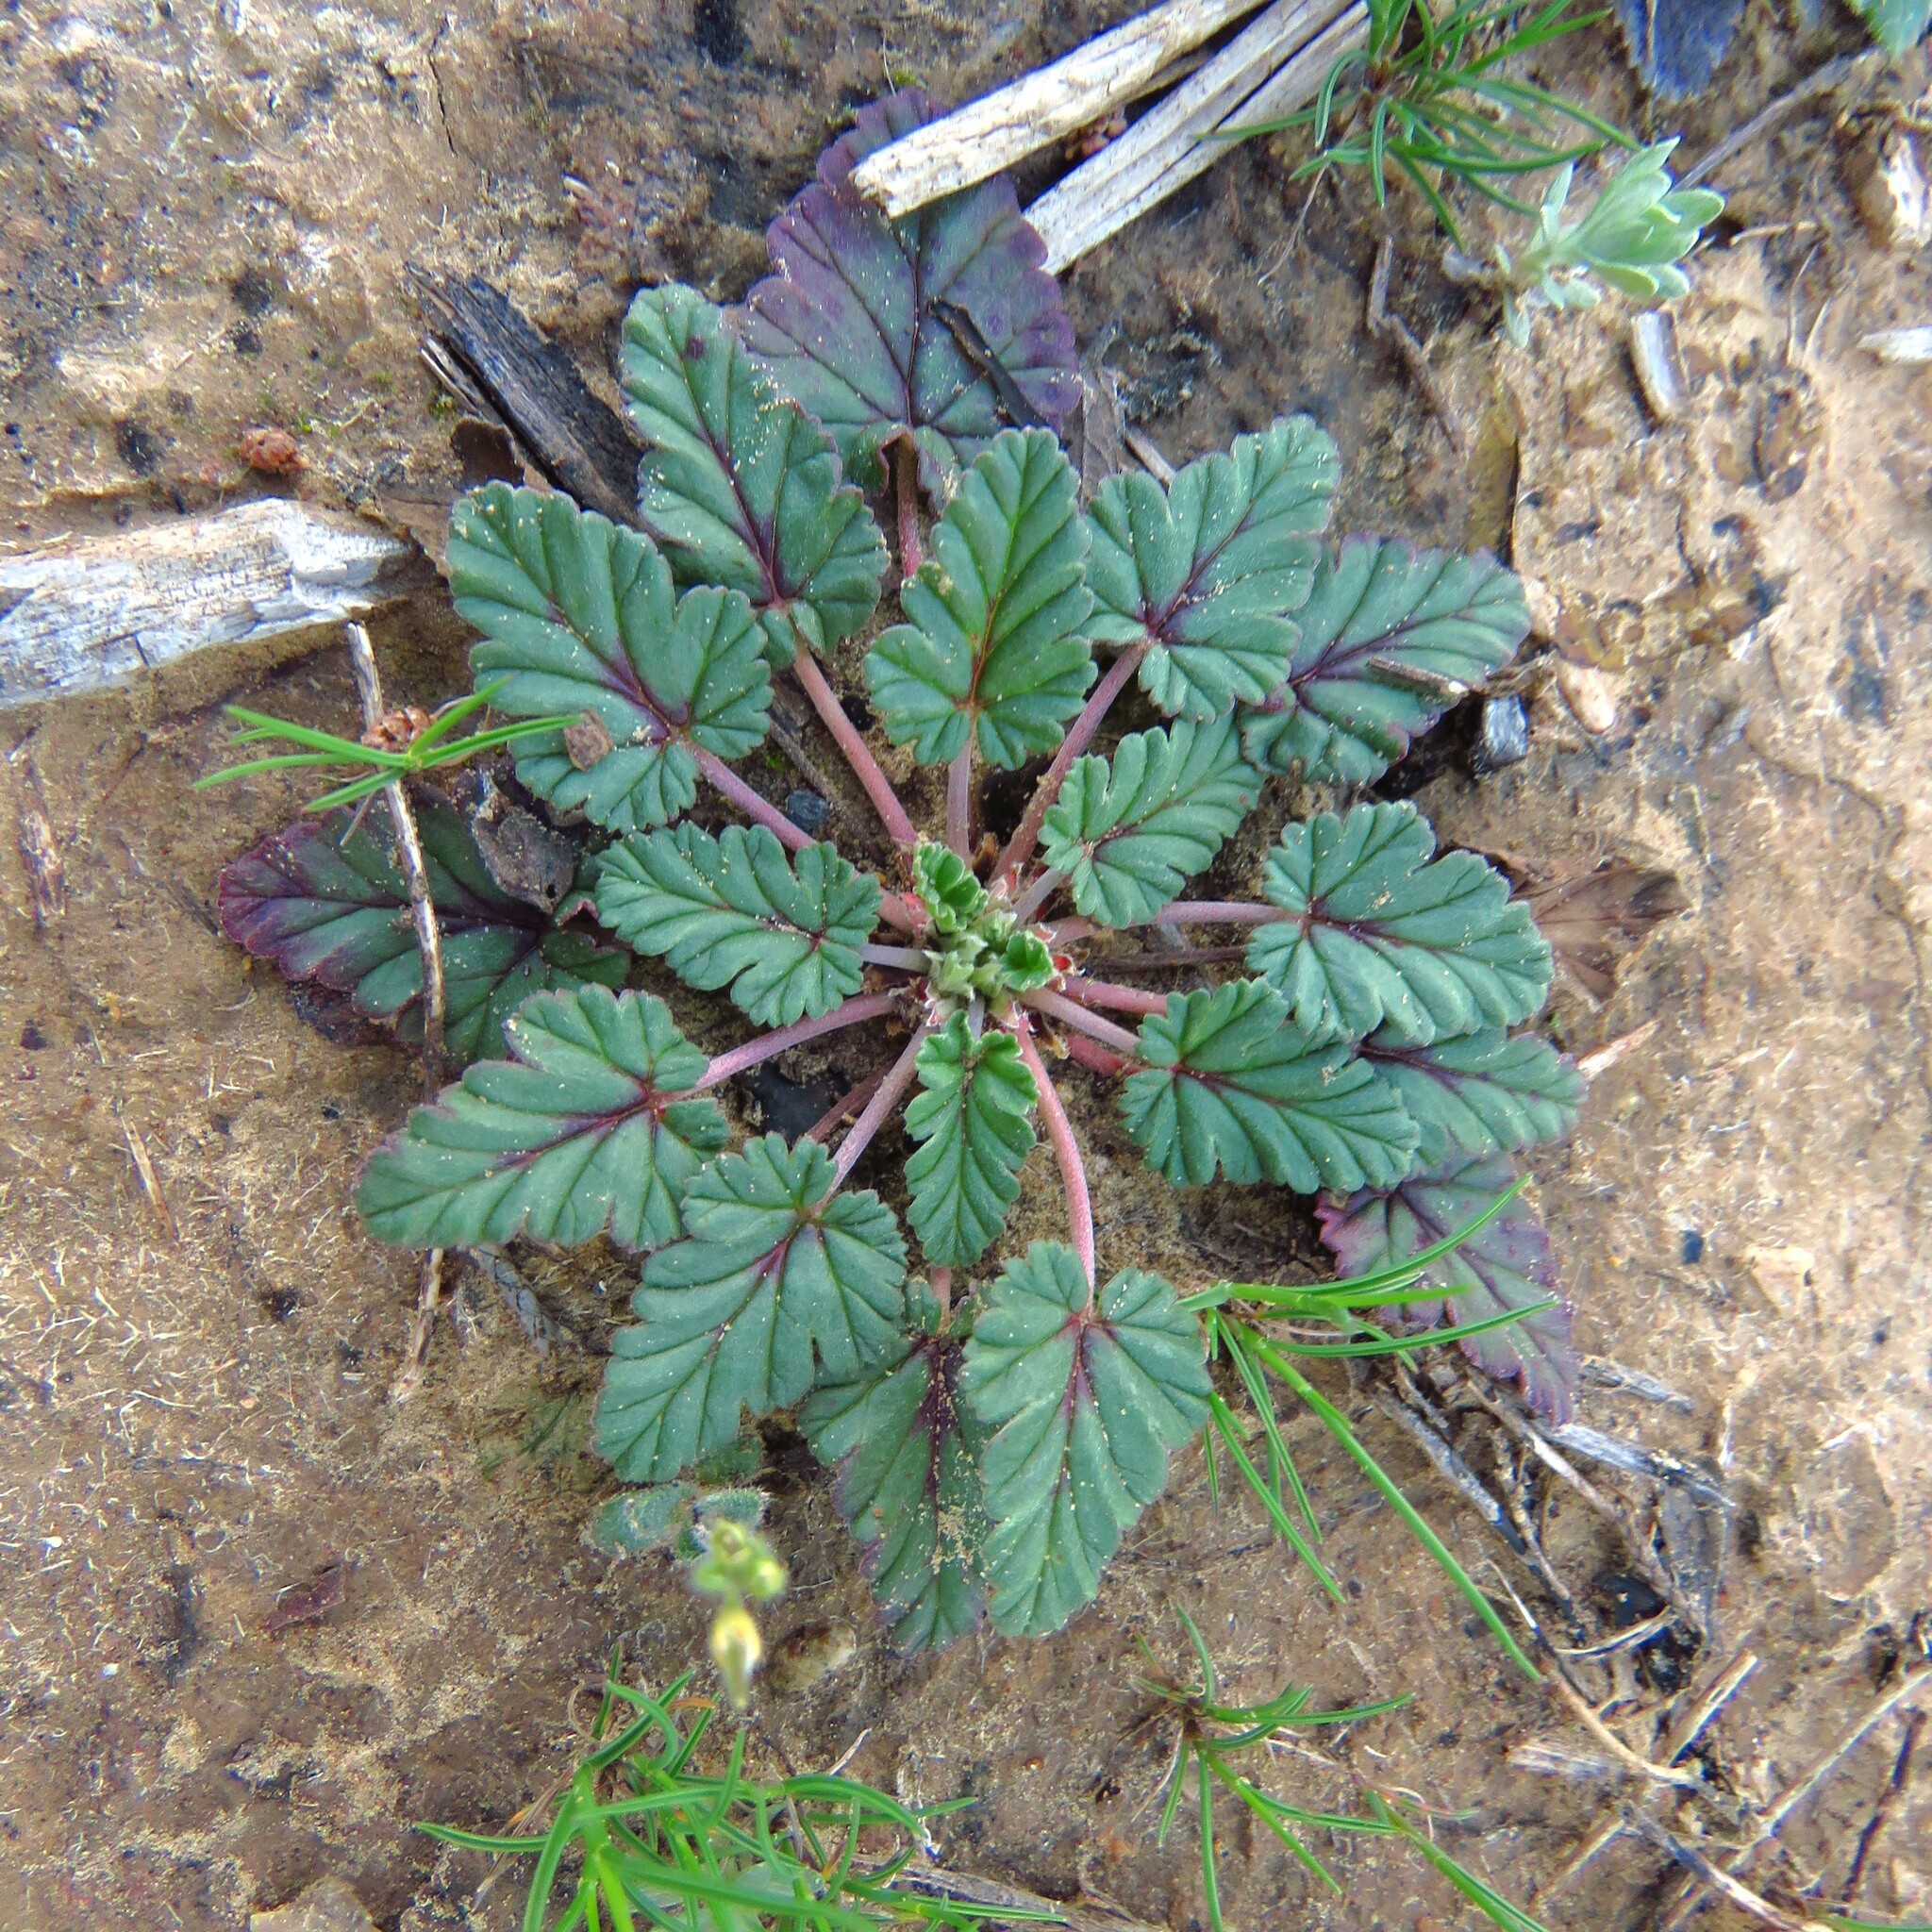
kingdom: Plantae
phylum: Tracheophyta
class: Magnoliopsida
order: Geraniales
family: Geraniaceae
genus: Erodium
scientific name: Erodium texanum
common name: Texas stork's-bill
